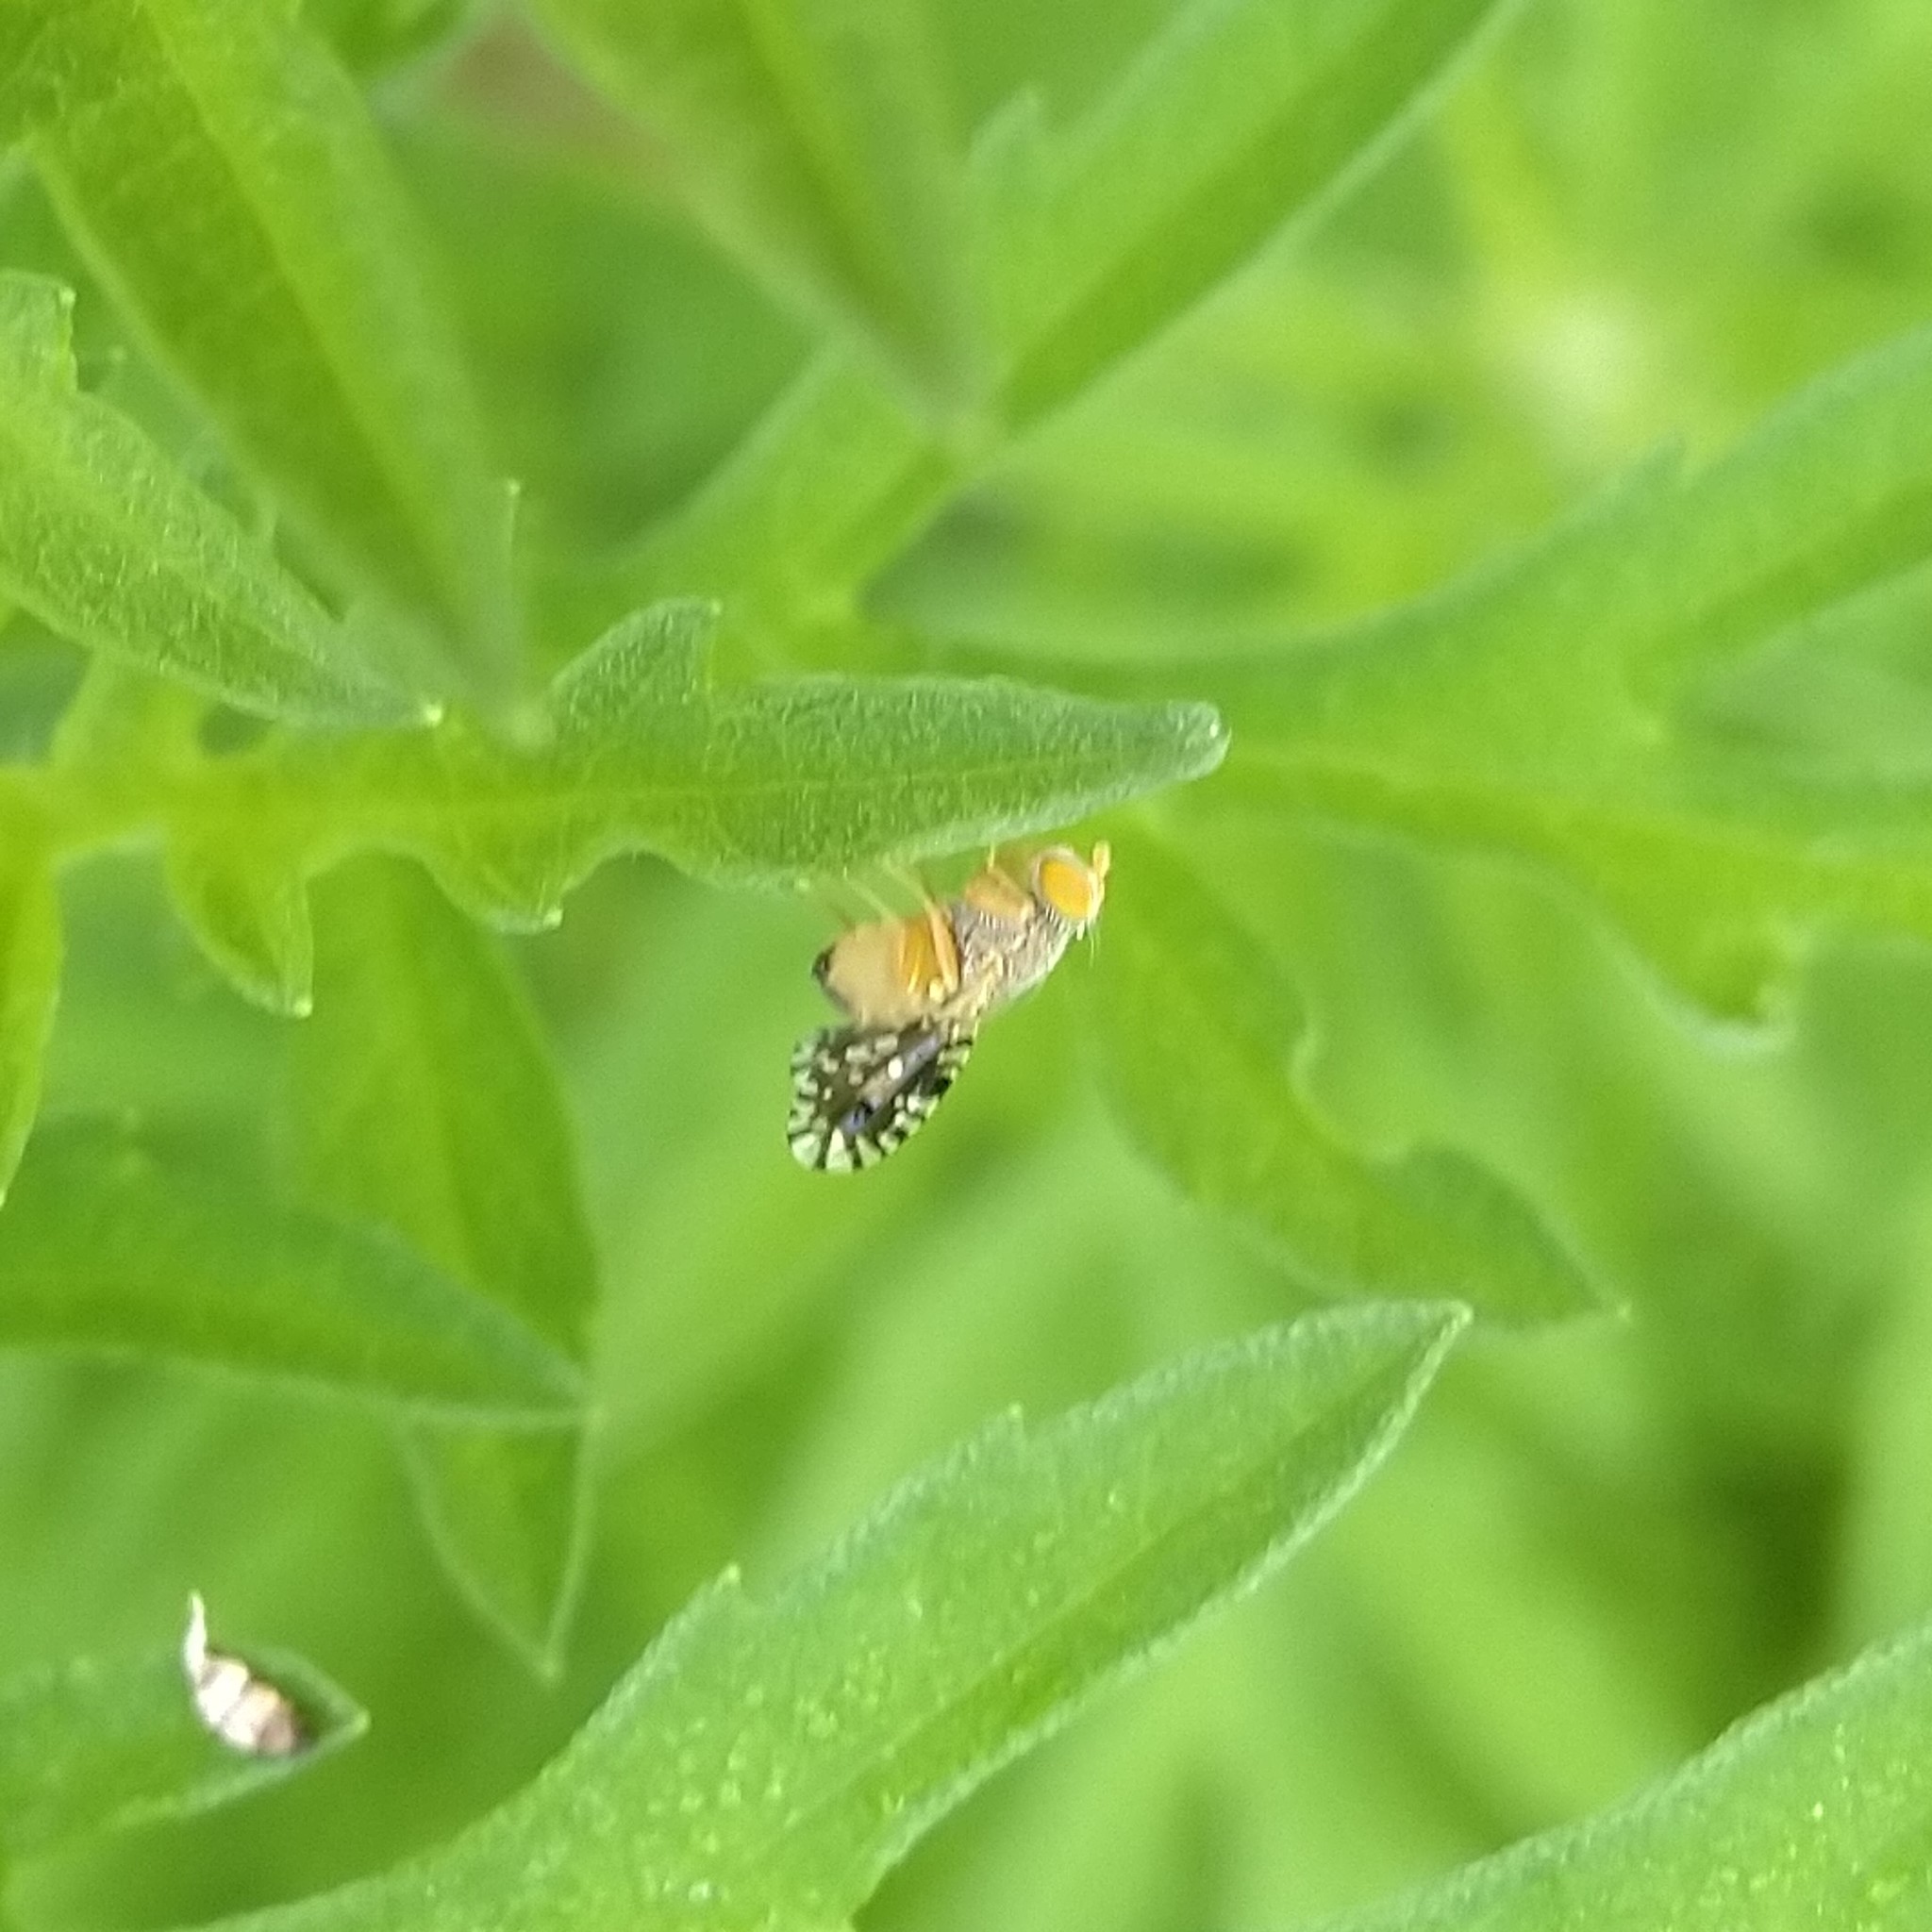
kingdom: Animalia
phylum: Arthropoda
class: Insecta
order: Diptera
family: Tephritidae
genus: Euaresta
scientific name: Euaresta bella
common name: Common ragweed fruit fly
